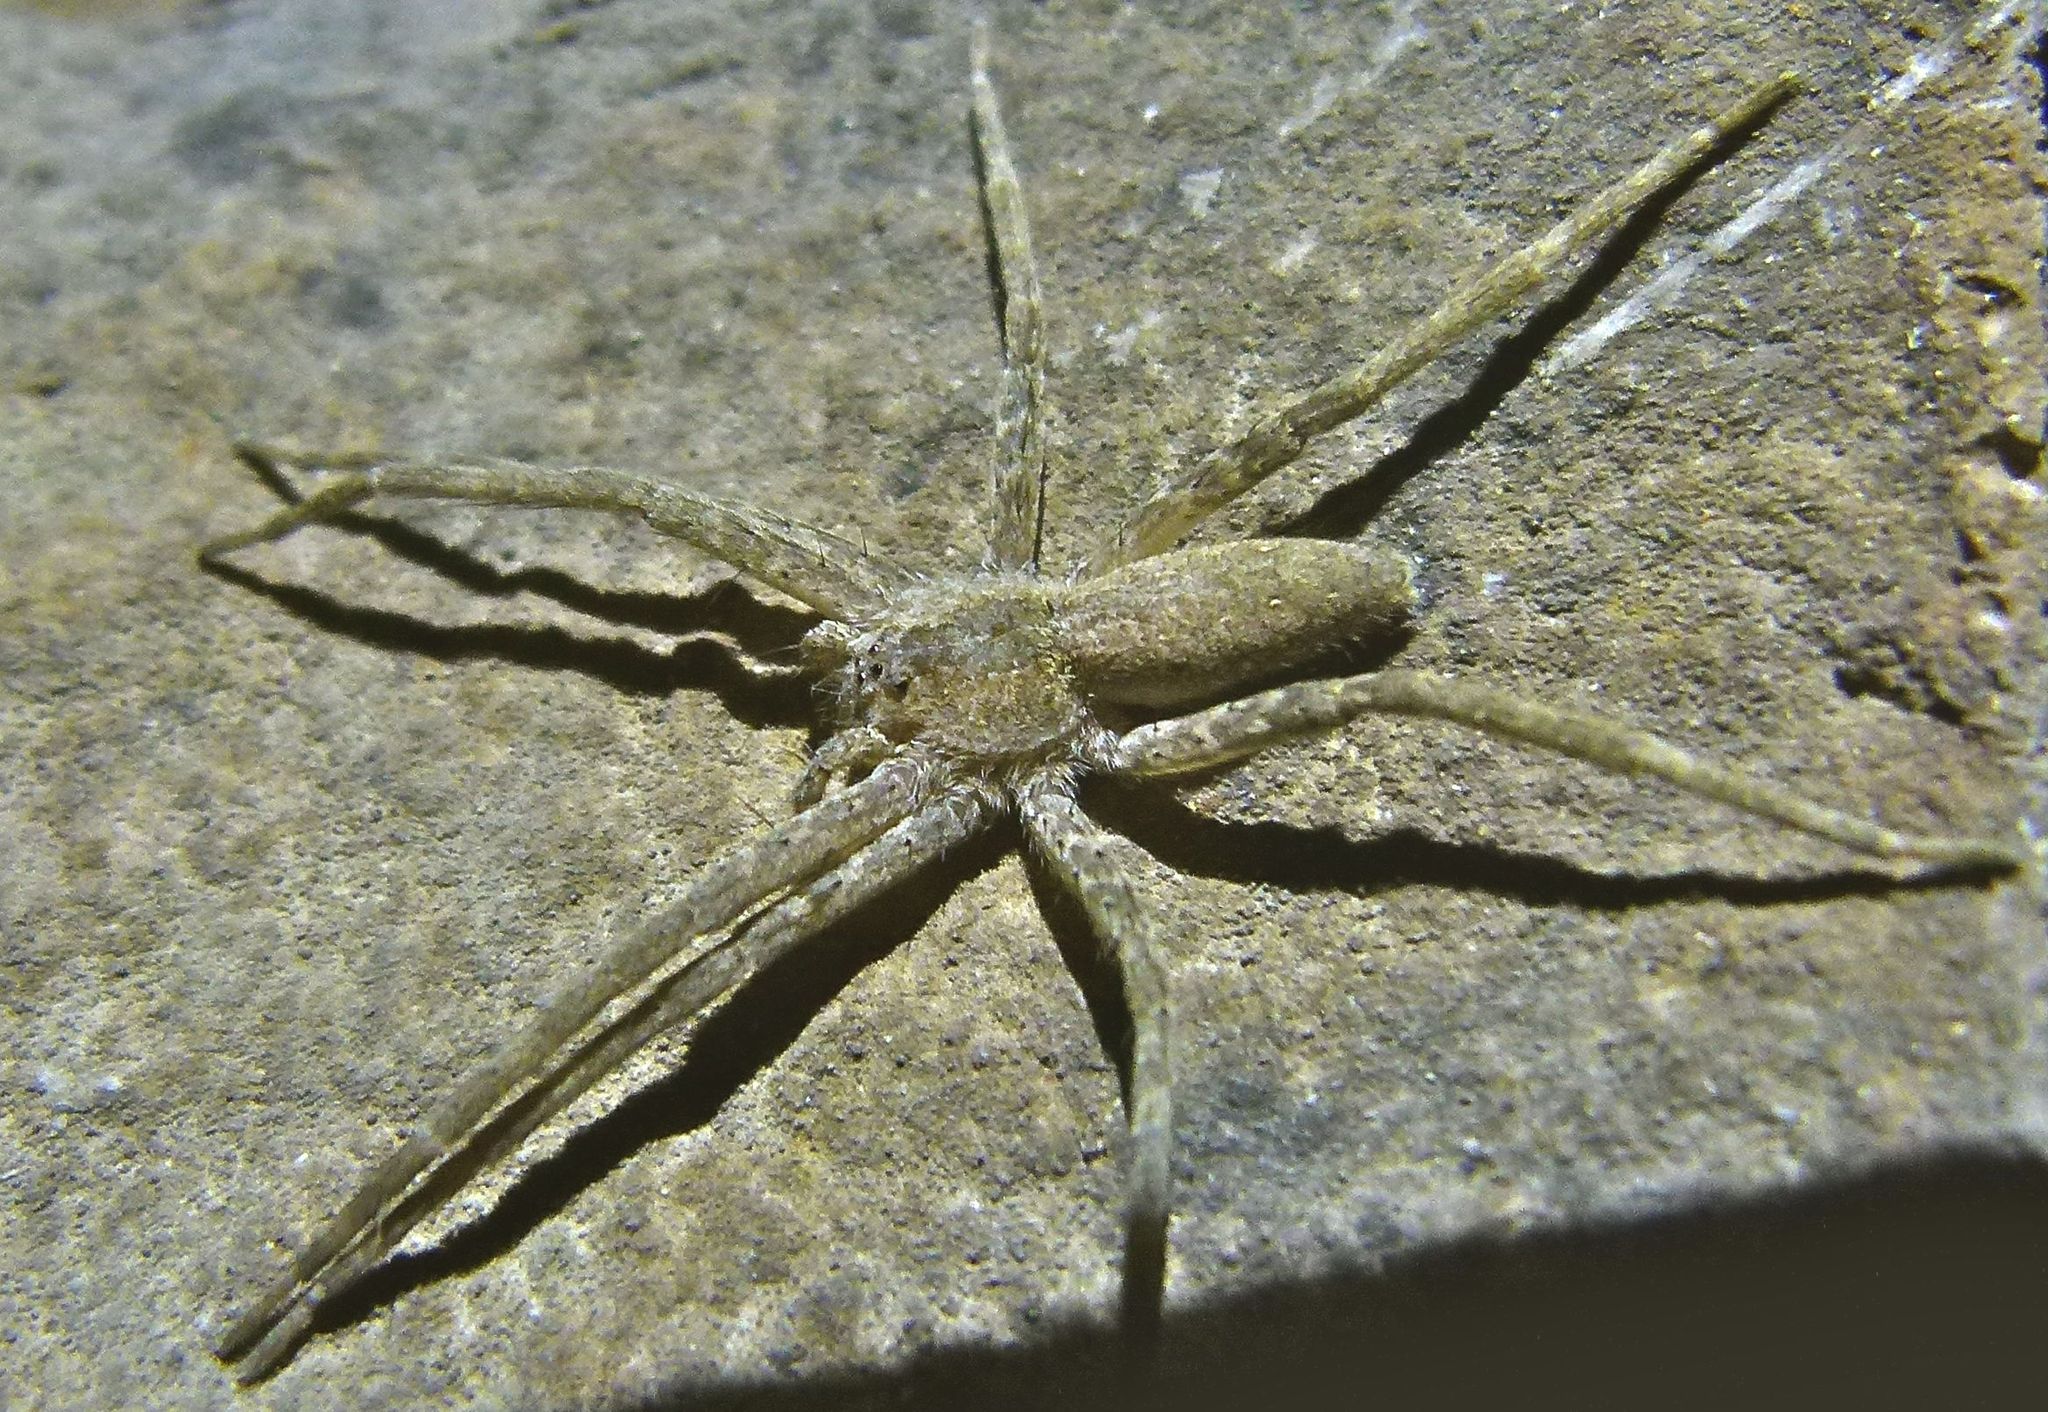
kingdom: Animalia
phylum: Arthropoda
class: Arachnida
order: Araneae
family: Pisauridae
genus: Pisaurina
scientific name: Pisaurina mira
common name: American nursery web spider
